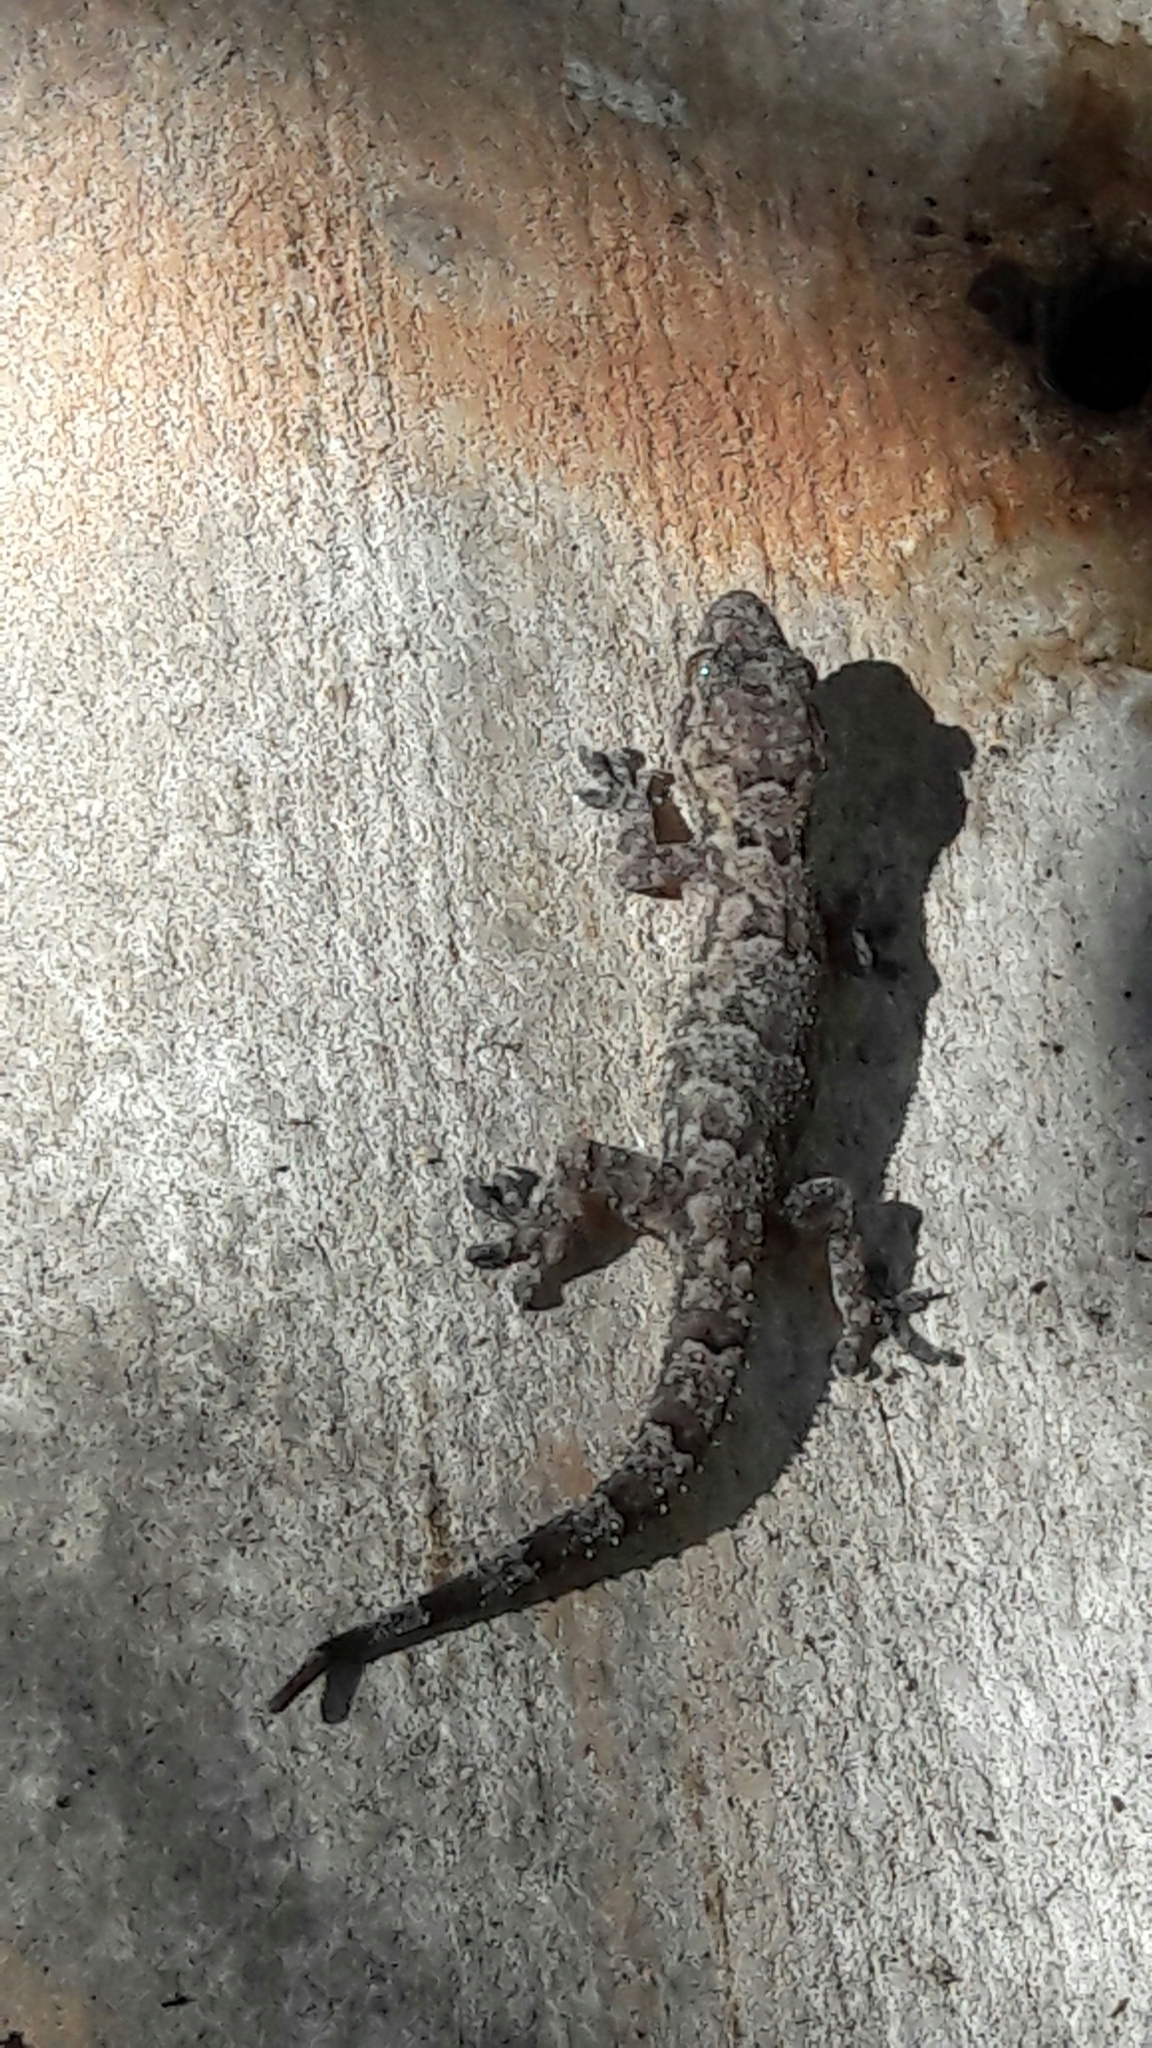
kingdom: Animalia
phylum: Chordata
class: Squamata
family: Gekkonidae
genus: Hemidactylus
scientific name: Hemidactylus mabouia
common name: House gecko
